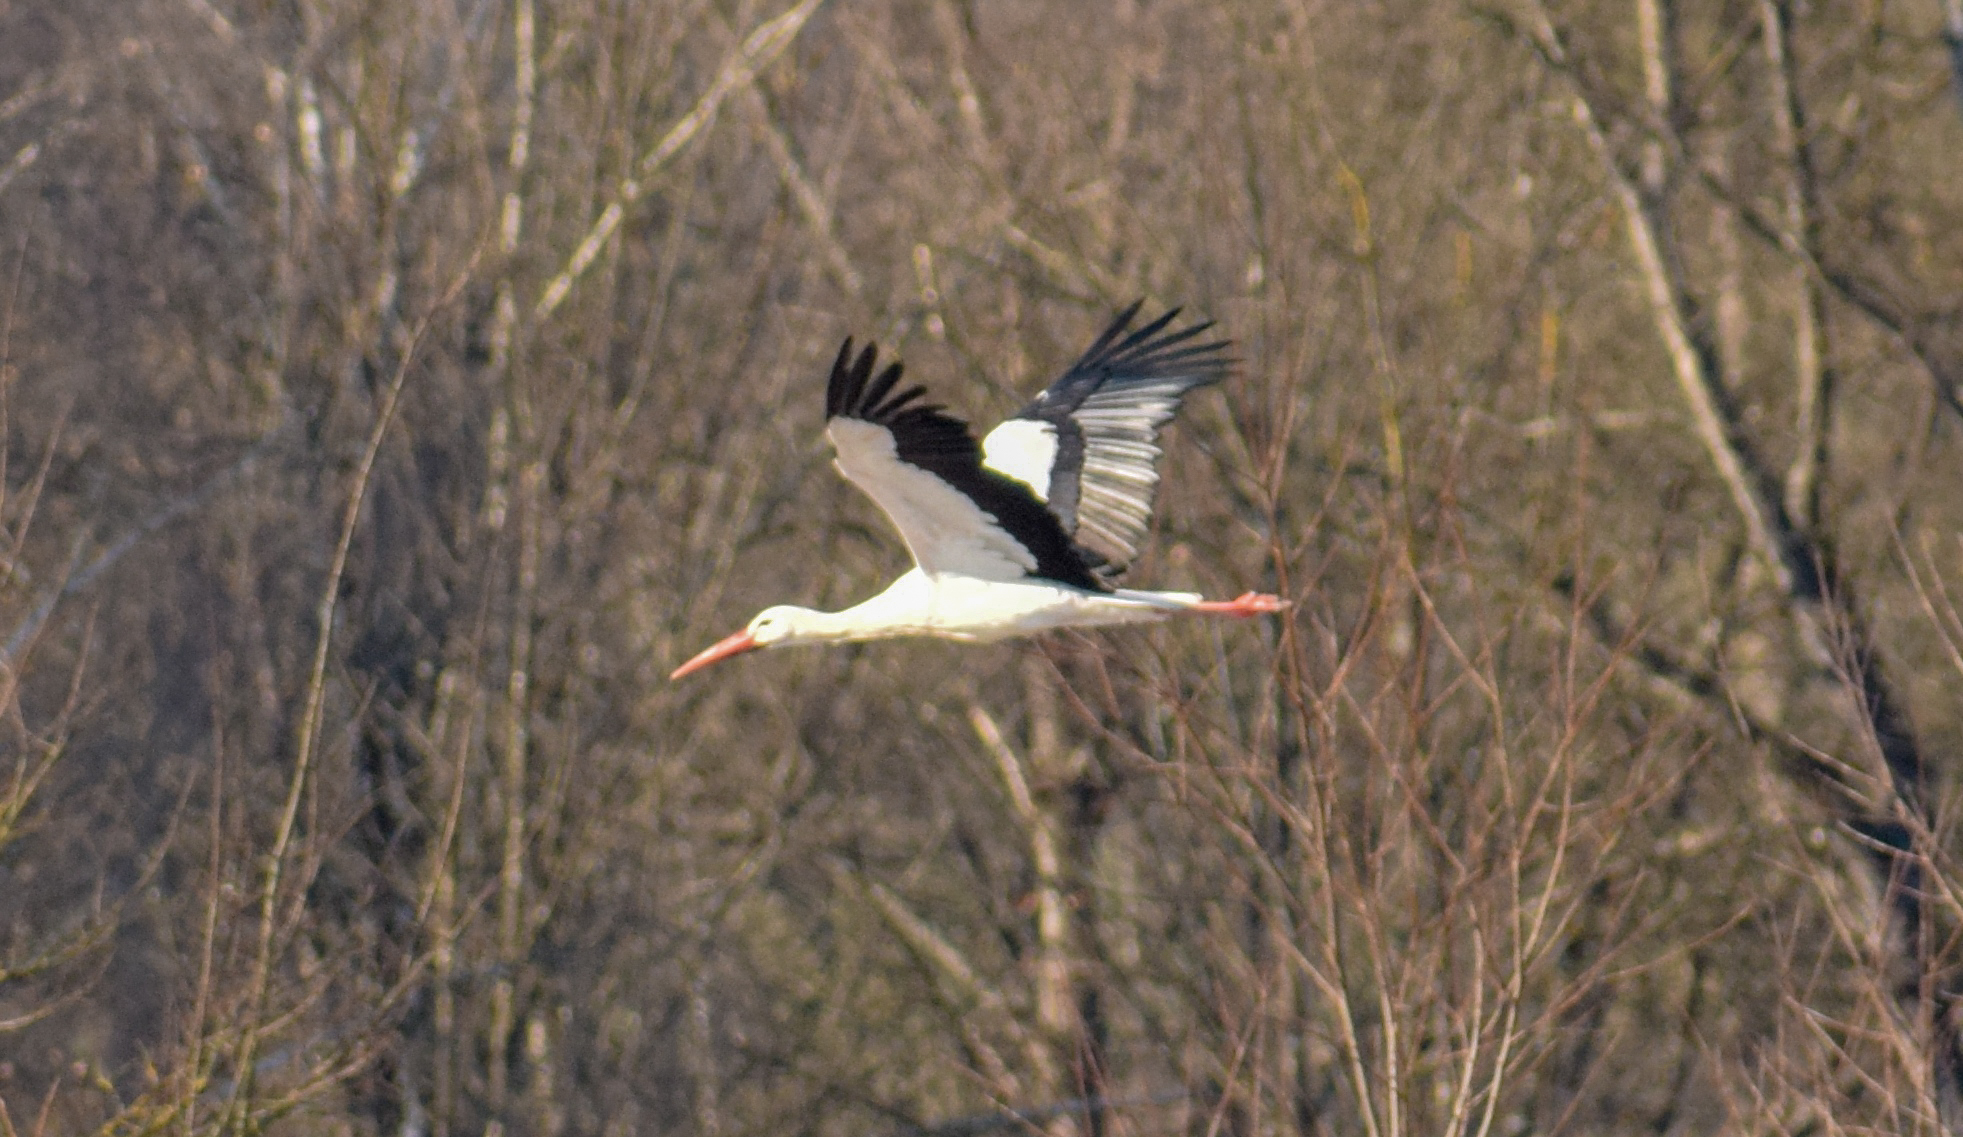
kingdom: Animalia
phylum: Chordata
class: Aves
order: Ciconiiformes
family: Ciconiidae
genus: Ciconia
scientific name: Ciconia ciconia
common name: White stork
